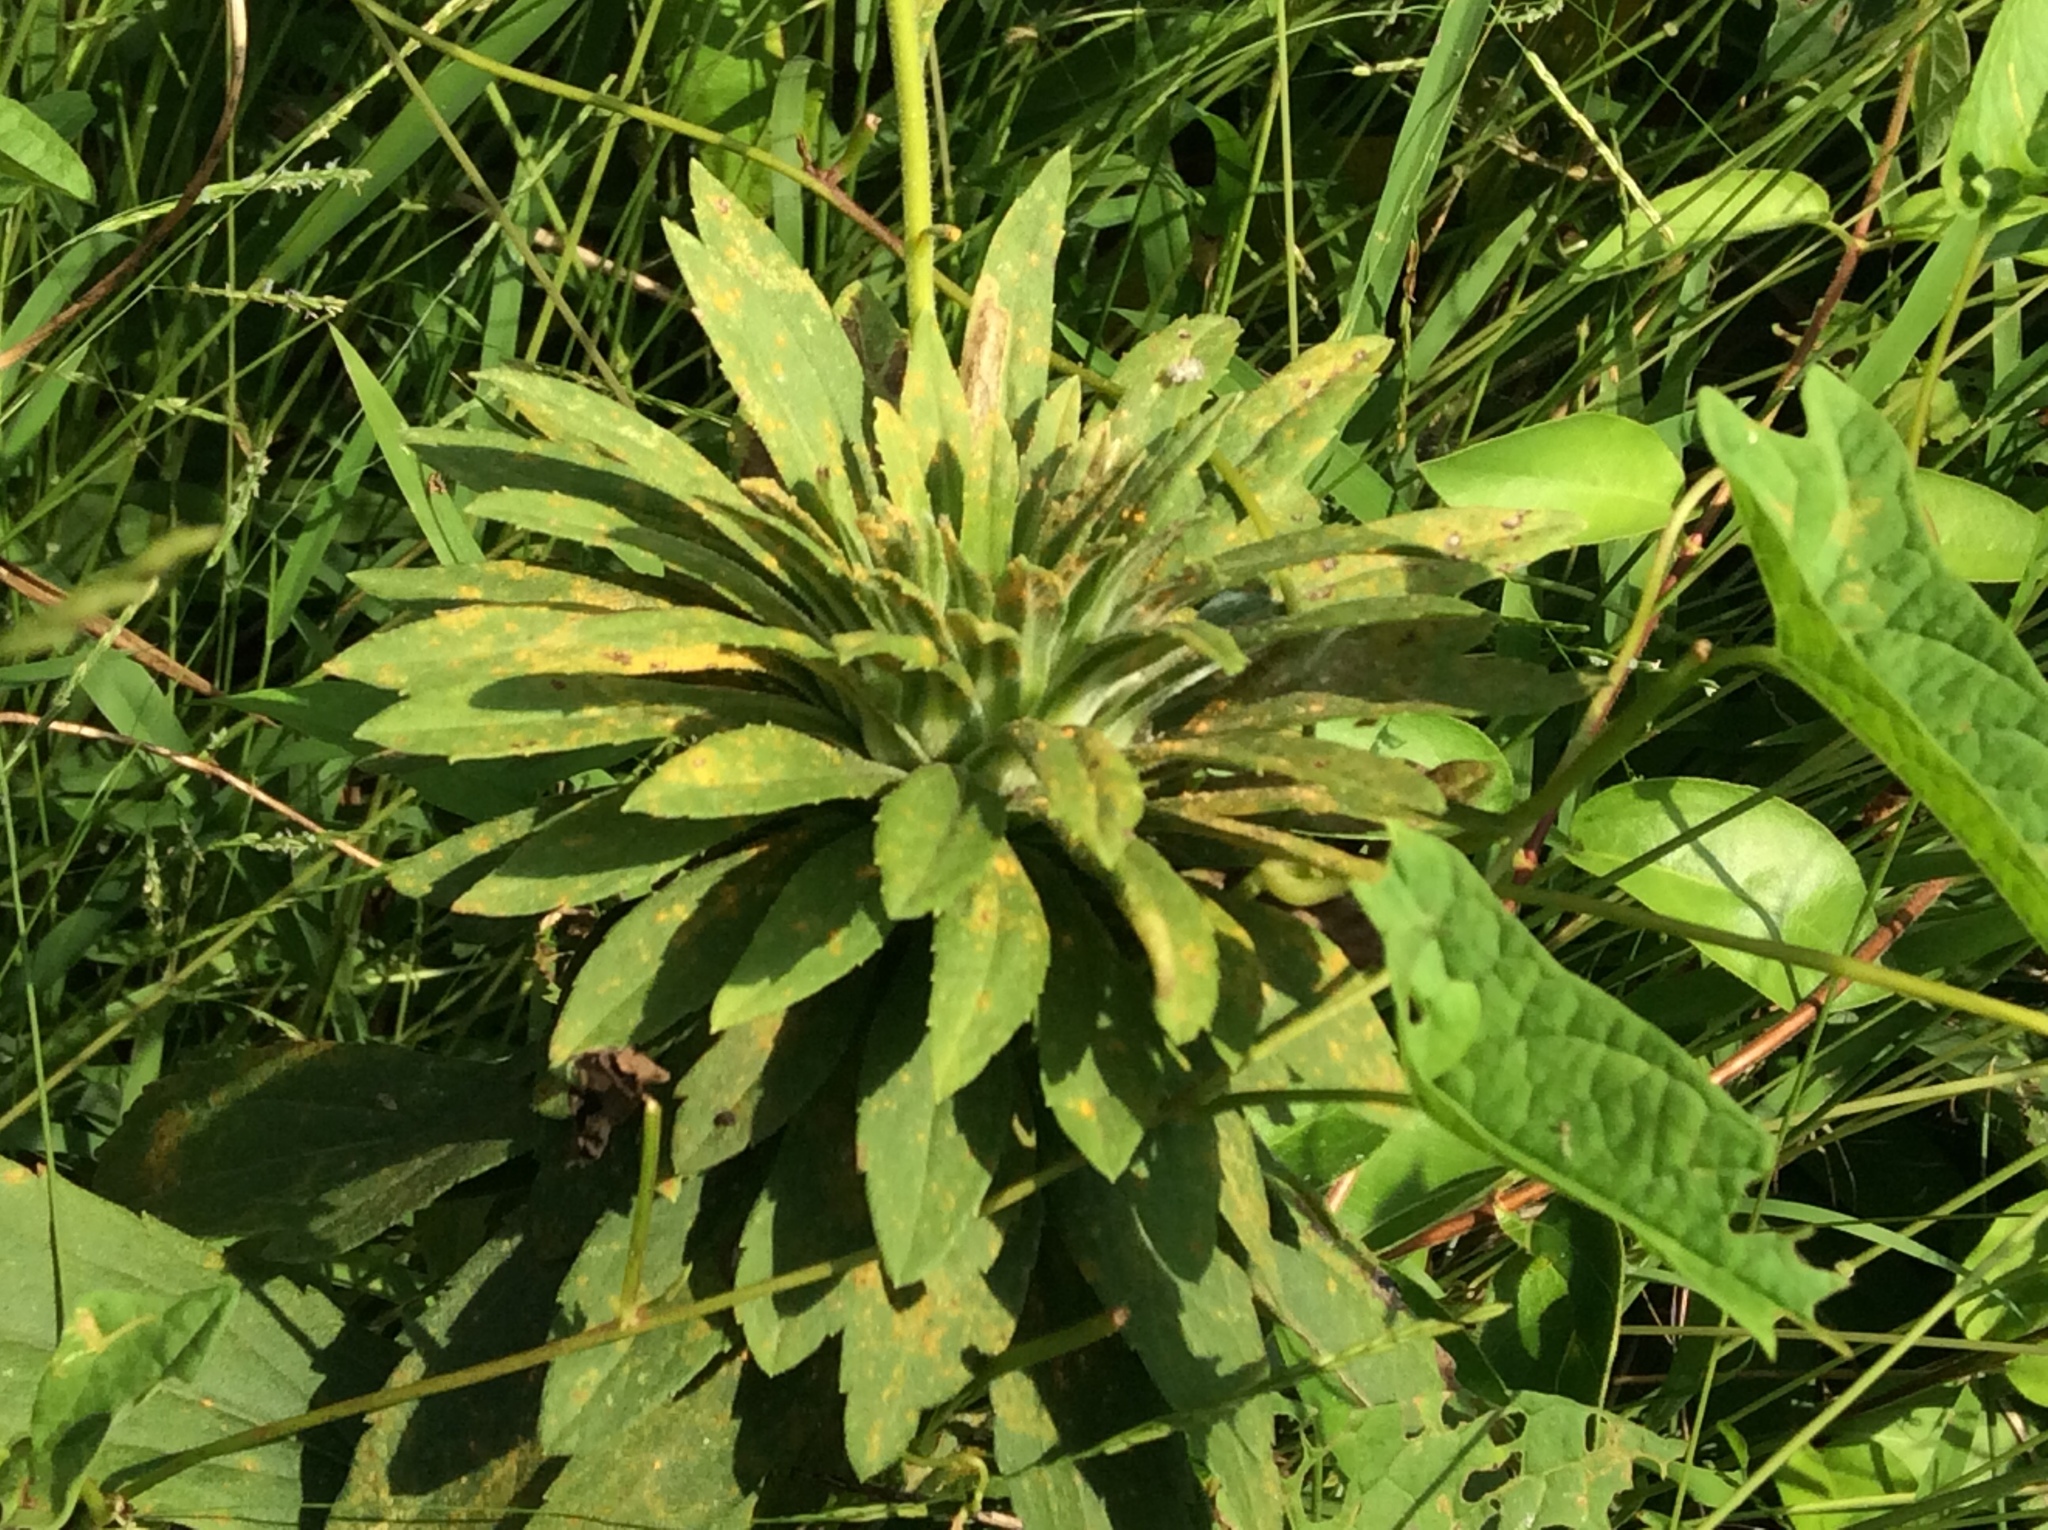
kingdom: Animalia
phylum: Arthropoda
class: Insecta
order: Diptera
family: Cecidomyiidae
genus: Rhopalomyia
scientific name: Rhopalomyia solidaginis
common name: Goldenrod bunch gall midge
